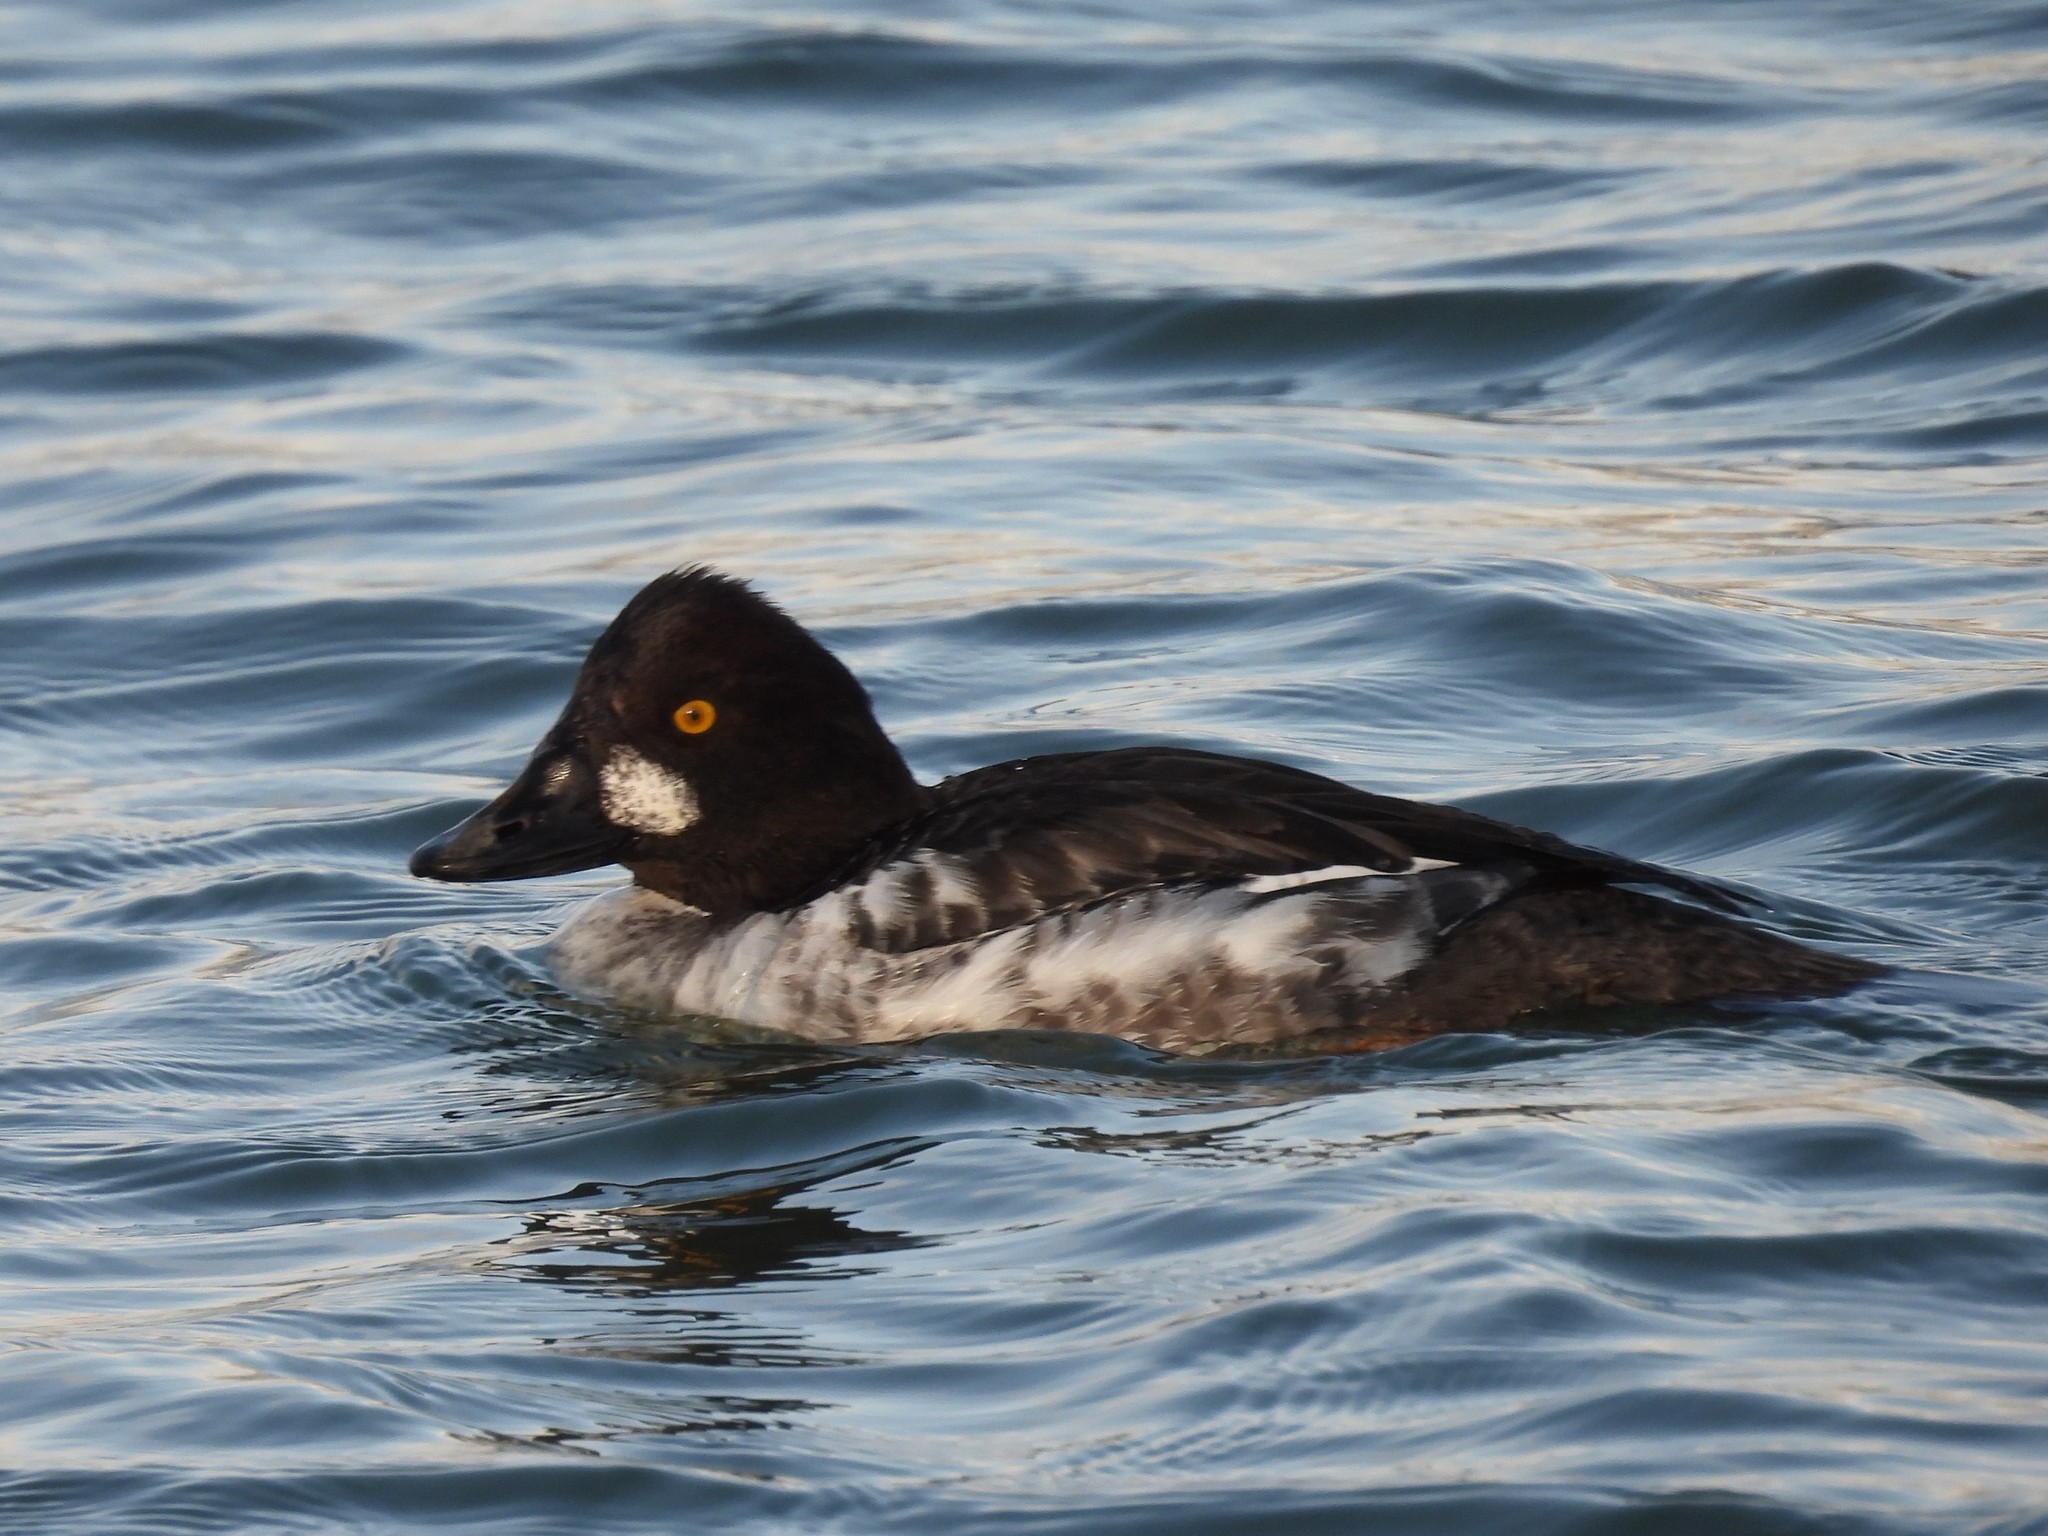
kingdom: Animalia
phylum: Chordata
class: Aves
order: Anseriformes
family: Anatidae
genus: Bucephala
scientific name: Bucephala clangula
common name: Common goldeneye
